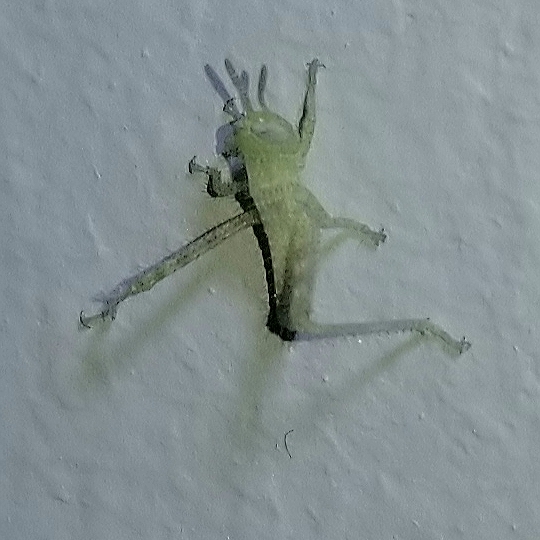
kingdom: Animalia
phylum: Arthropoda
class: Insecta
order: Orthoptera
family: Acrididae
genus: Schistocerca
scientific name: Schistocerca nitens
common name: Vagrant grasshopper
